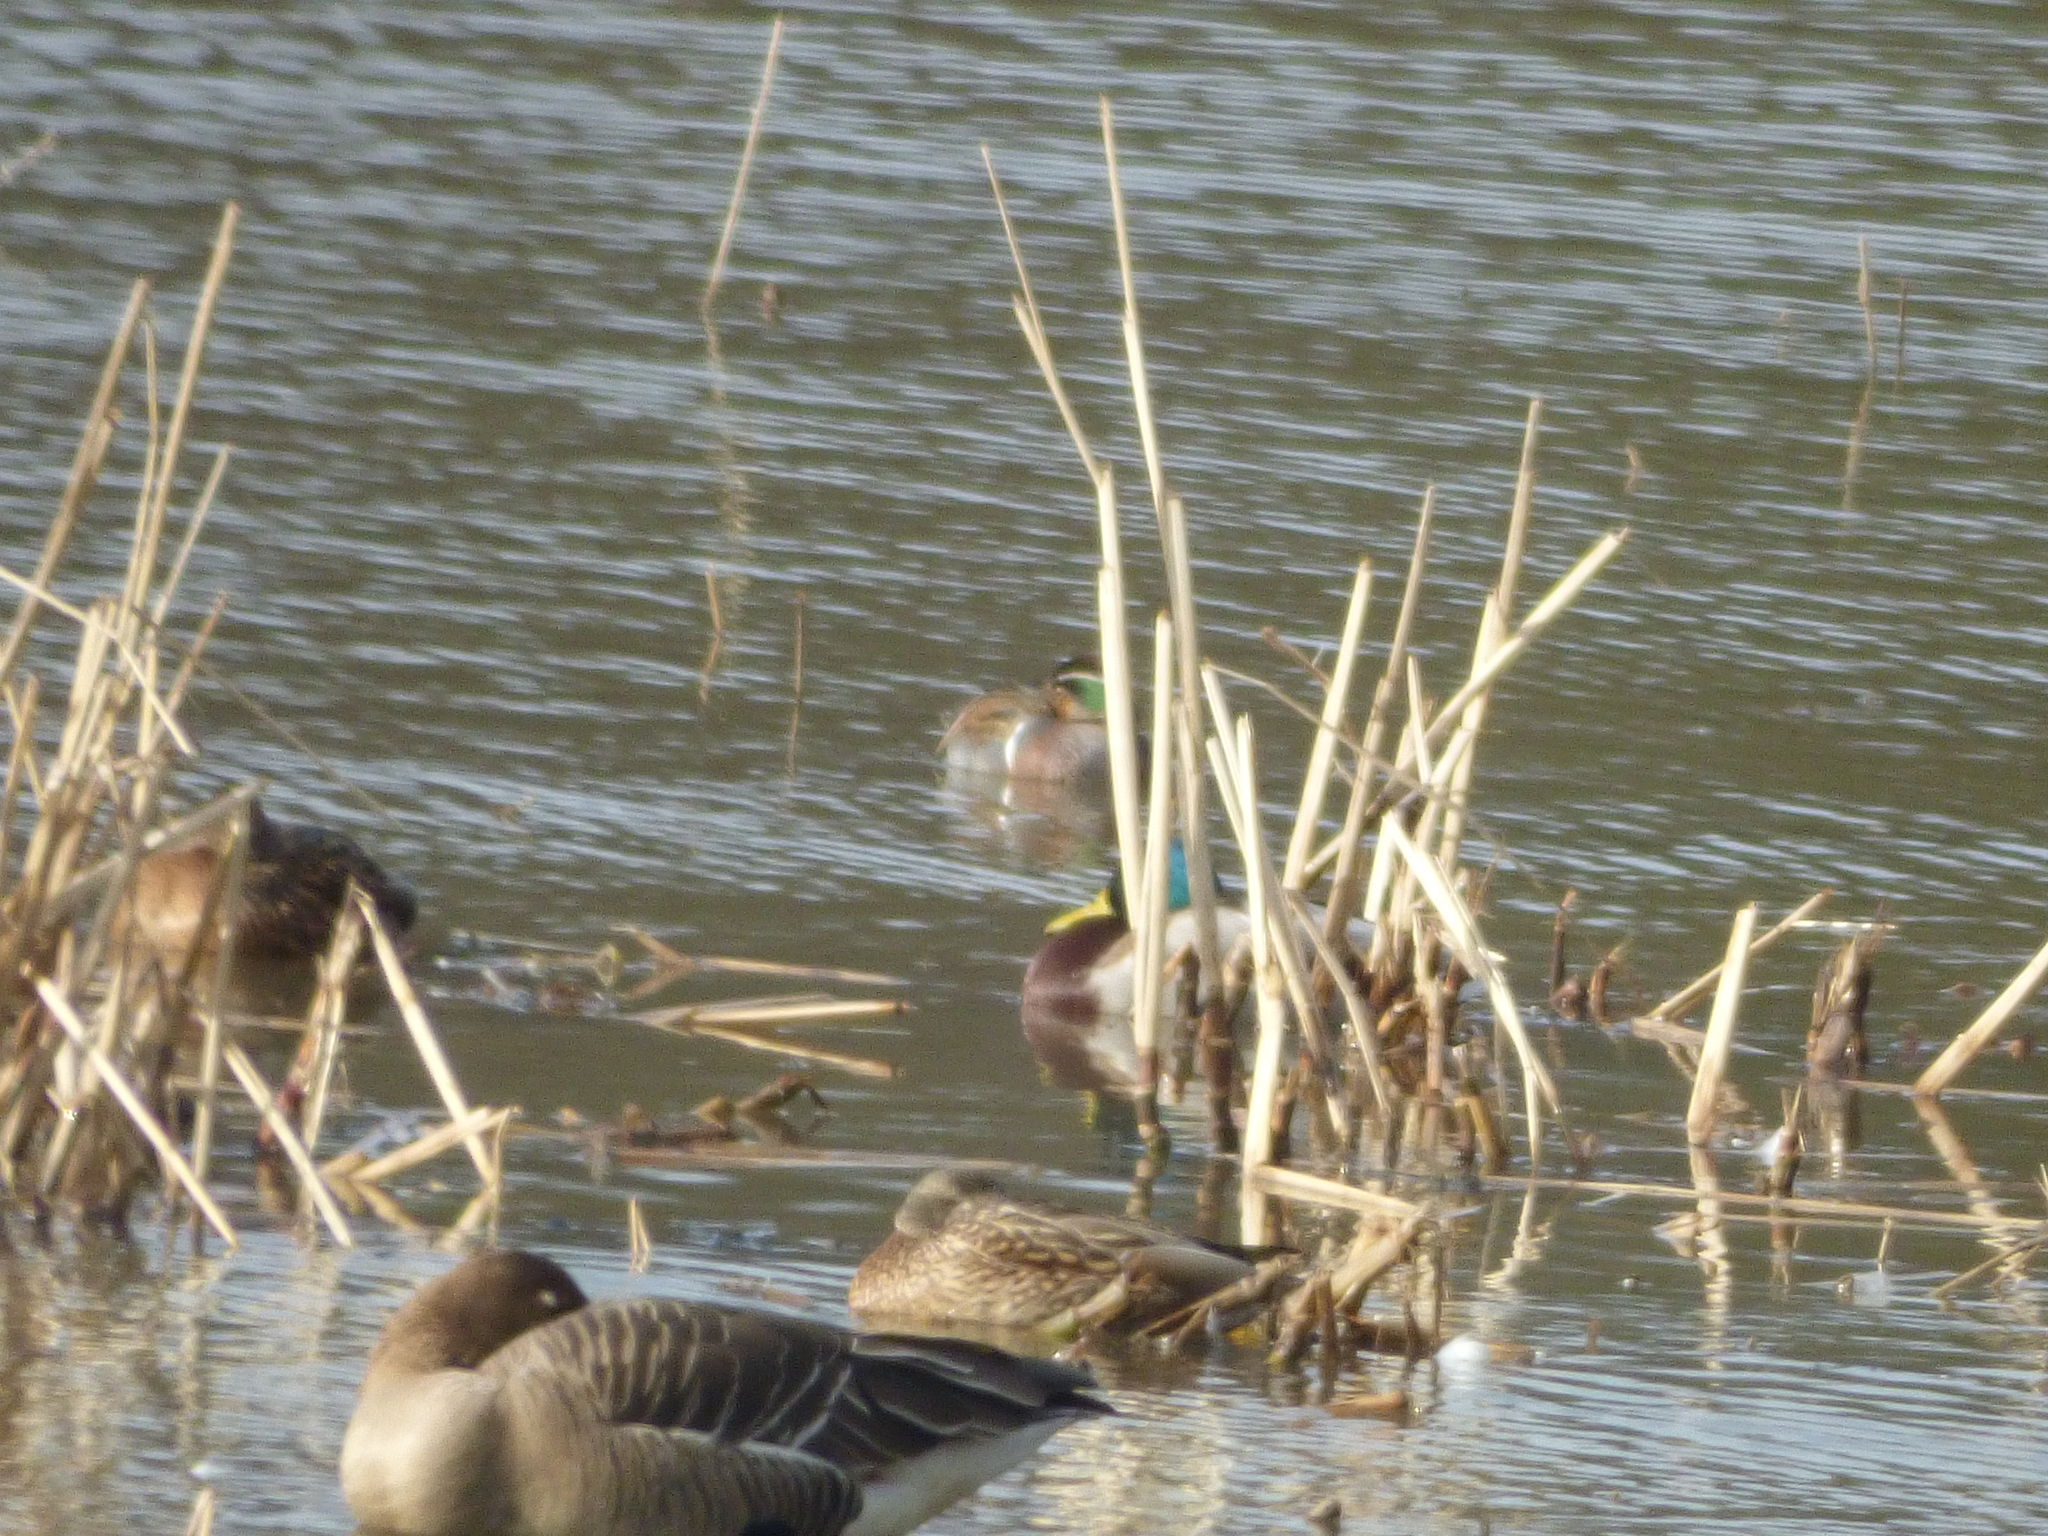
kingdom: Animalia
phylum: Chordata
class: Aves
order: Anseriformes
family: Anatidae
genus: Sibirionetta
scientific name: Sibirionetta formosa
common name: Baikal teal
